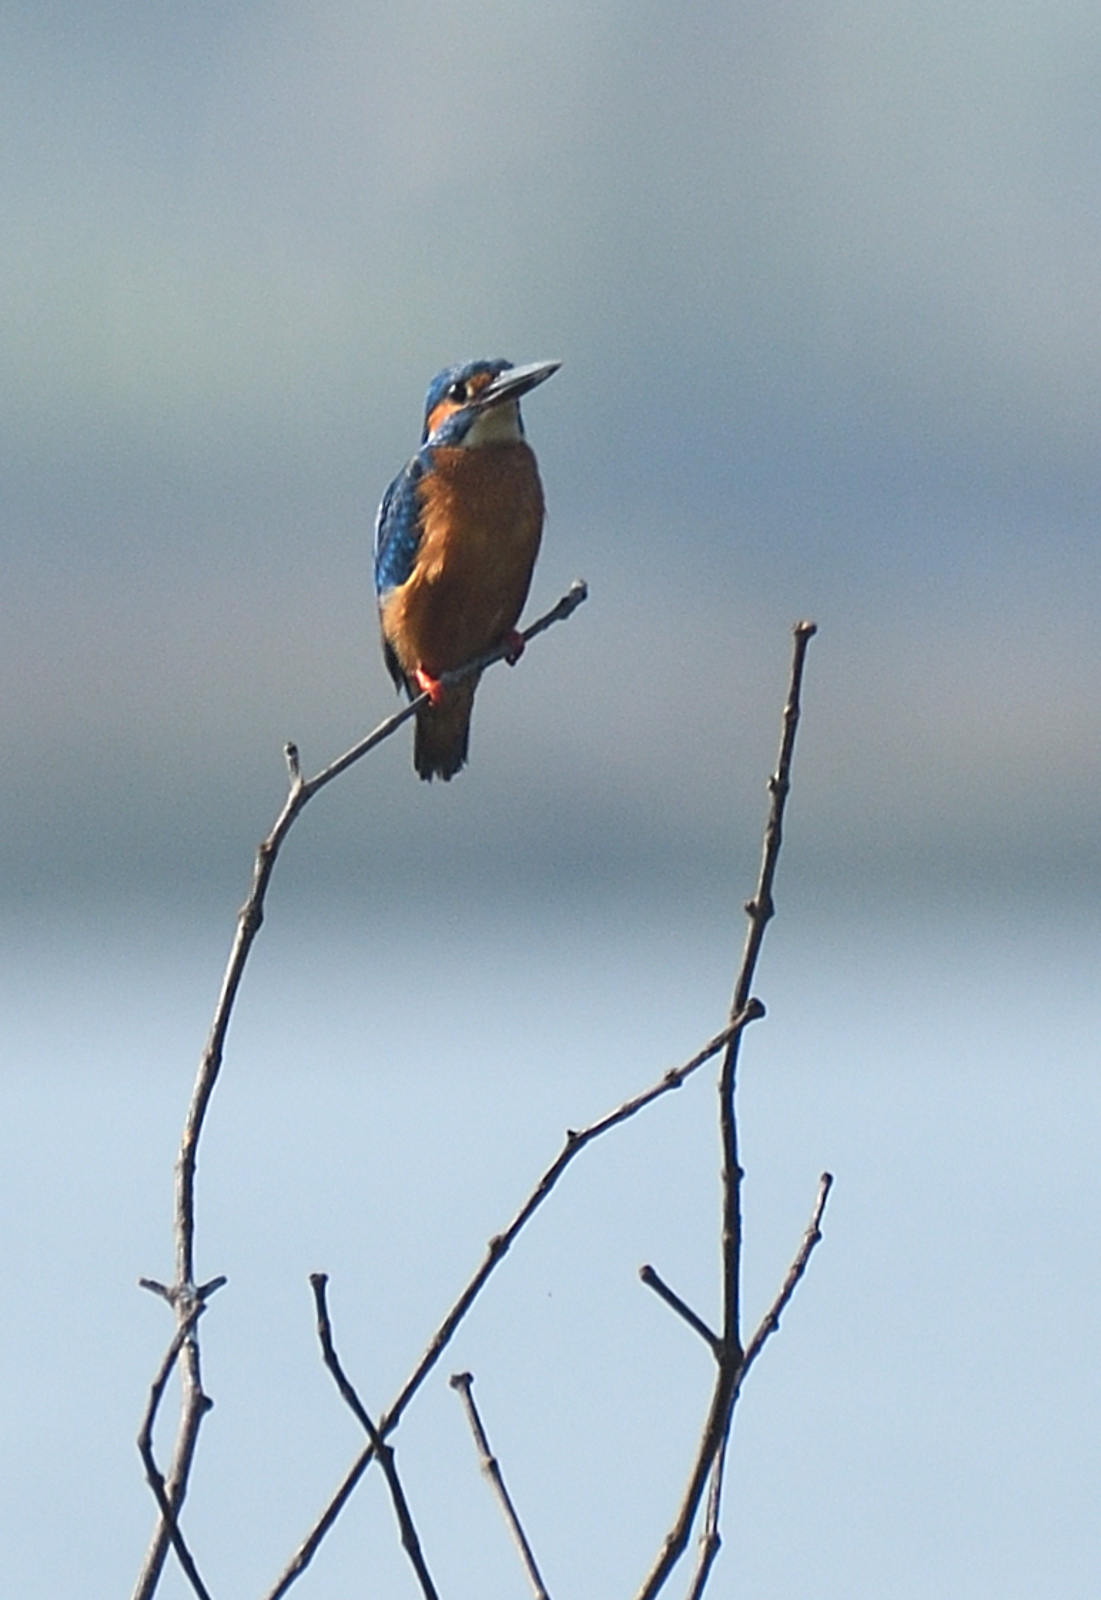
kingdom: Animalia
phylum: Chordata
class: Aves
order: Coraciiformes
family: Alcedinidae
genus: Alcedo
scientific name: Alcedo atthis
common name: Common kingfisher
